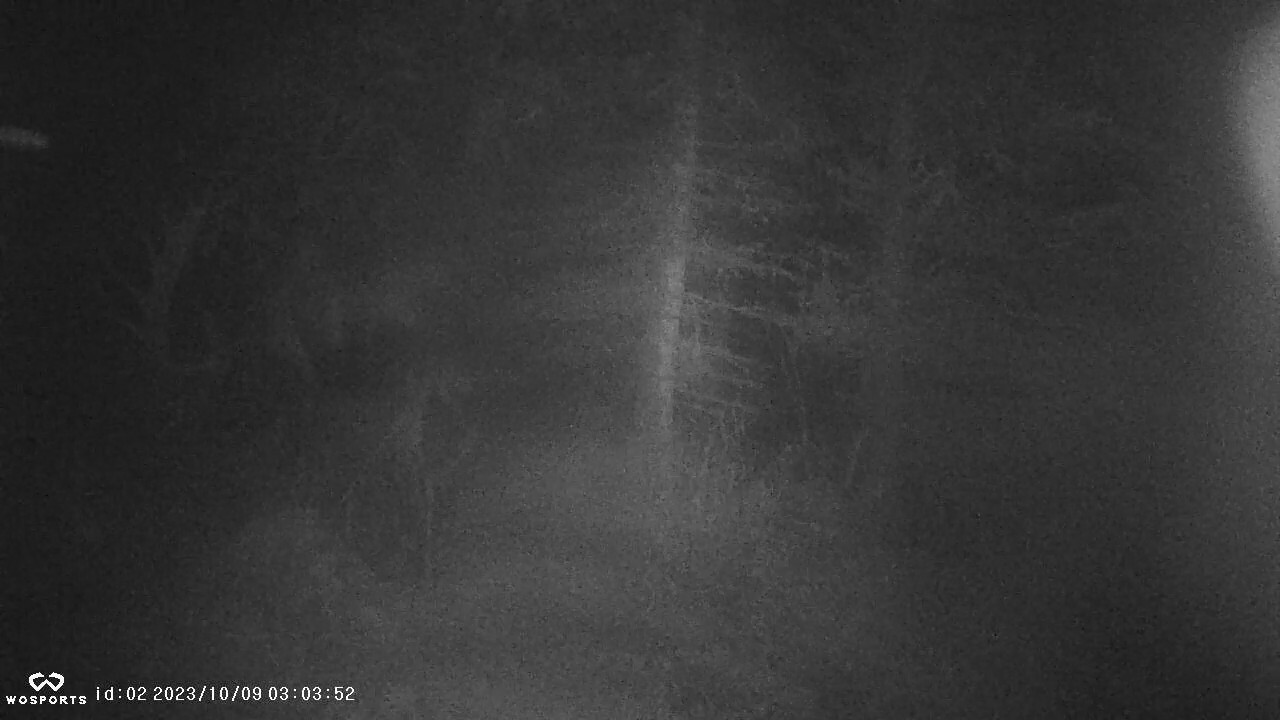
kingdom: Animalia
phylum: Chordata
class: Mammalia
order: Artiodactyla
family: Cervidae
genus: Alces
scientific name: Alces alces
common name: Moose
